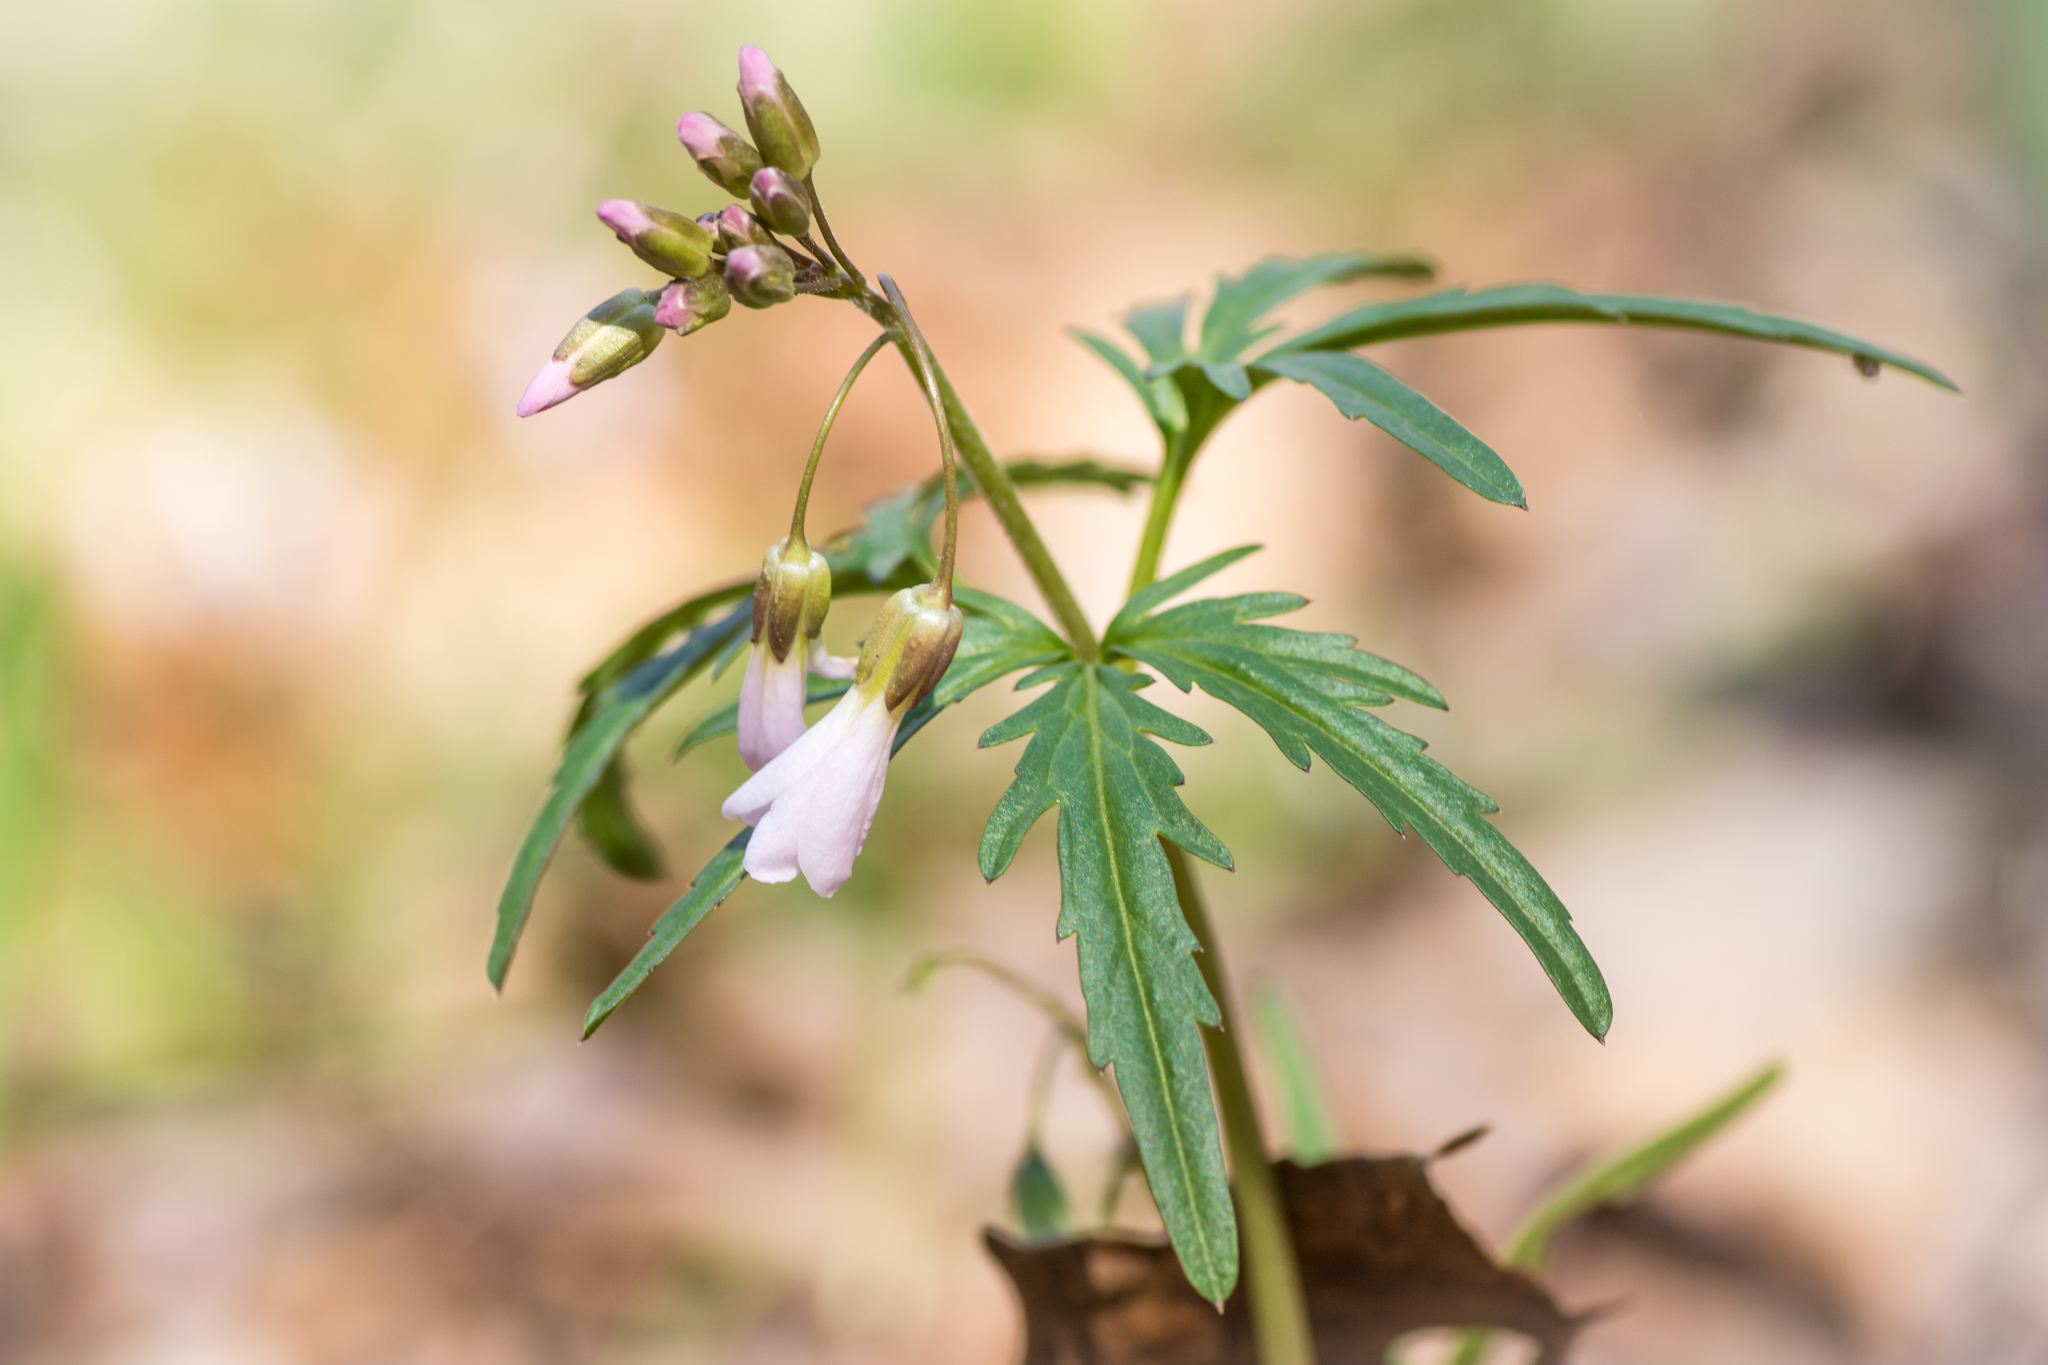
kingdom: Plantae
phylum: Tracheophyta
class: Magnoliopsida
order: Brassicales
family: Brassicaceae
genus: Cardamine
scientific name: Cardamine concatenata
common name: Cut-leaf toothcup
